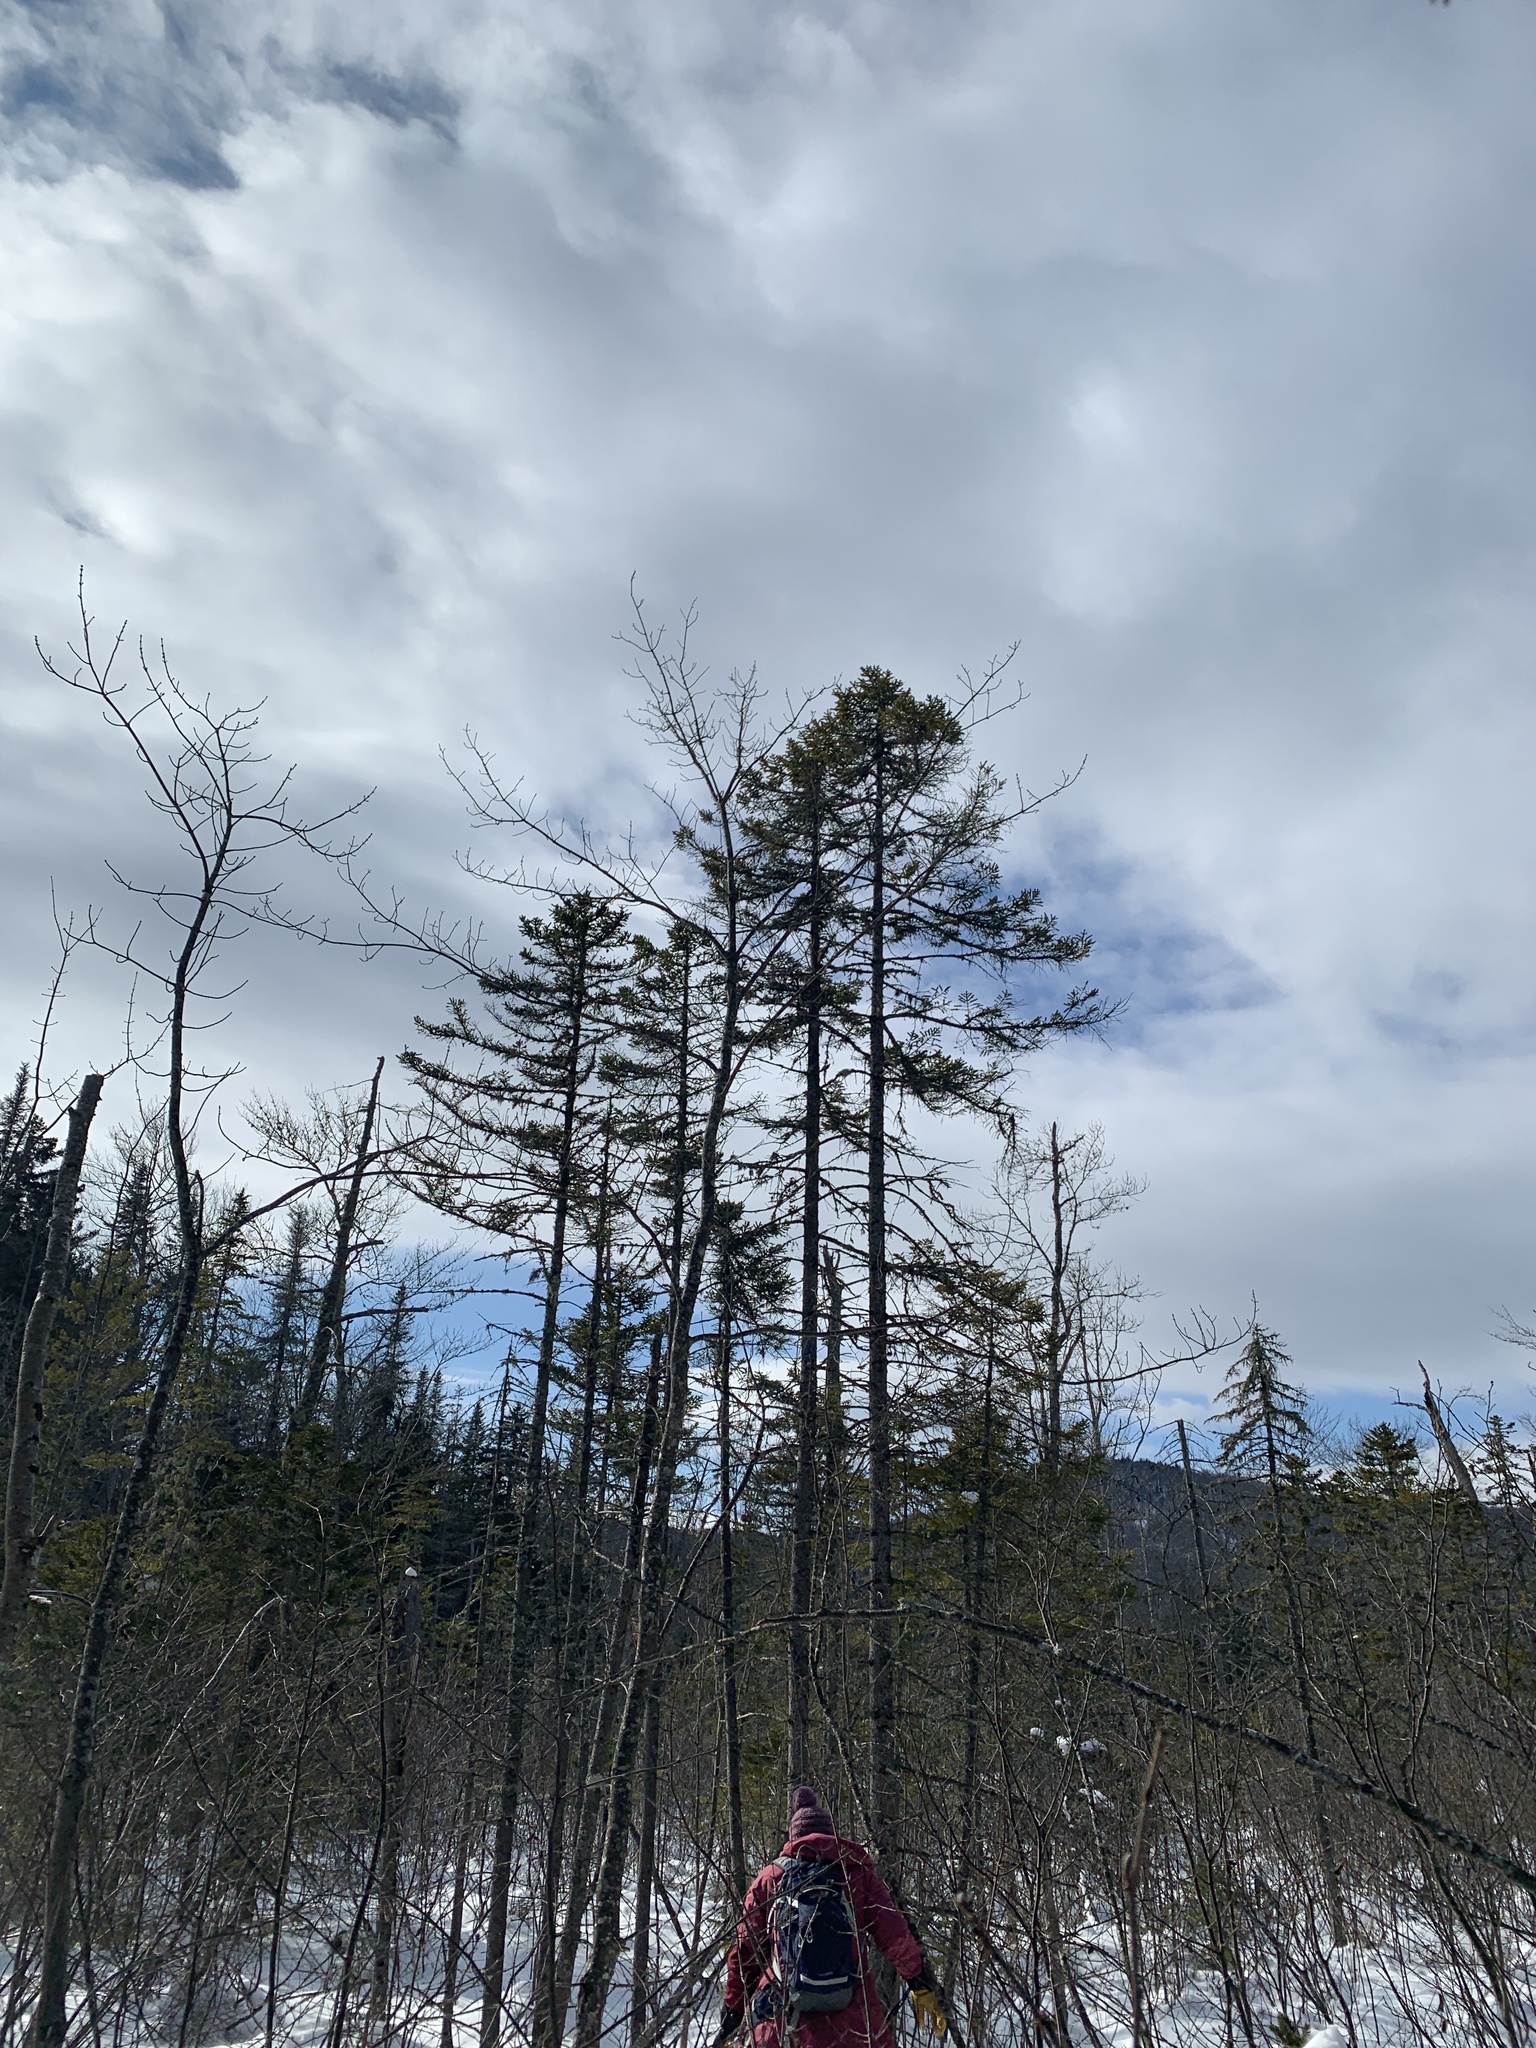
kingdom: Plantae
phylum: Tracheophyta
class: Pinopsida
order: Pinales
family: Pinaceae
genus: Picea
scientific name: Picea mariana
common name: Black spruce
